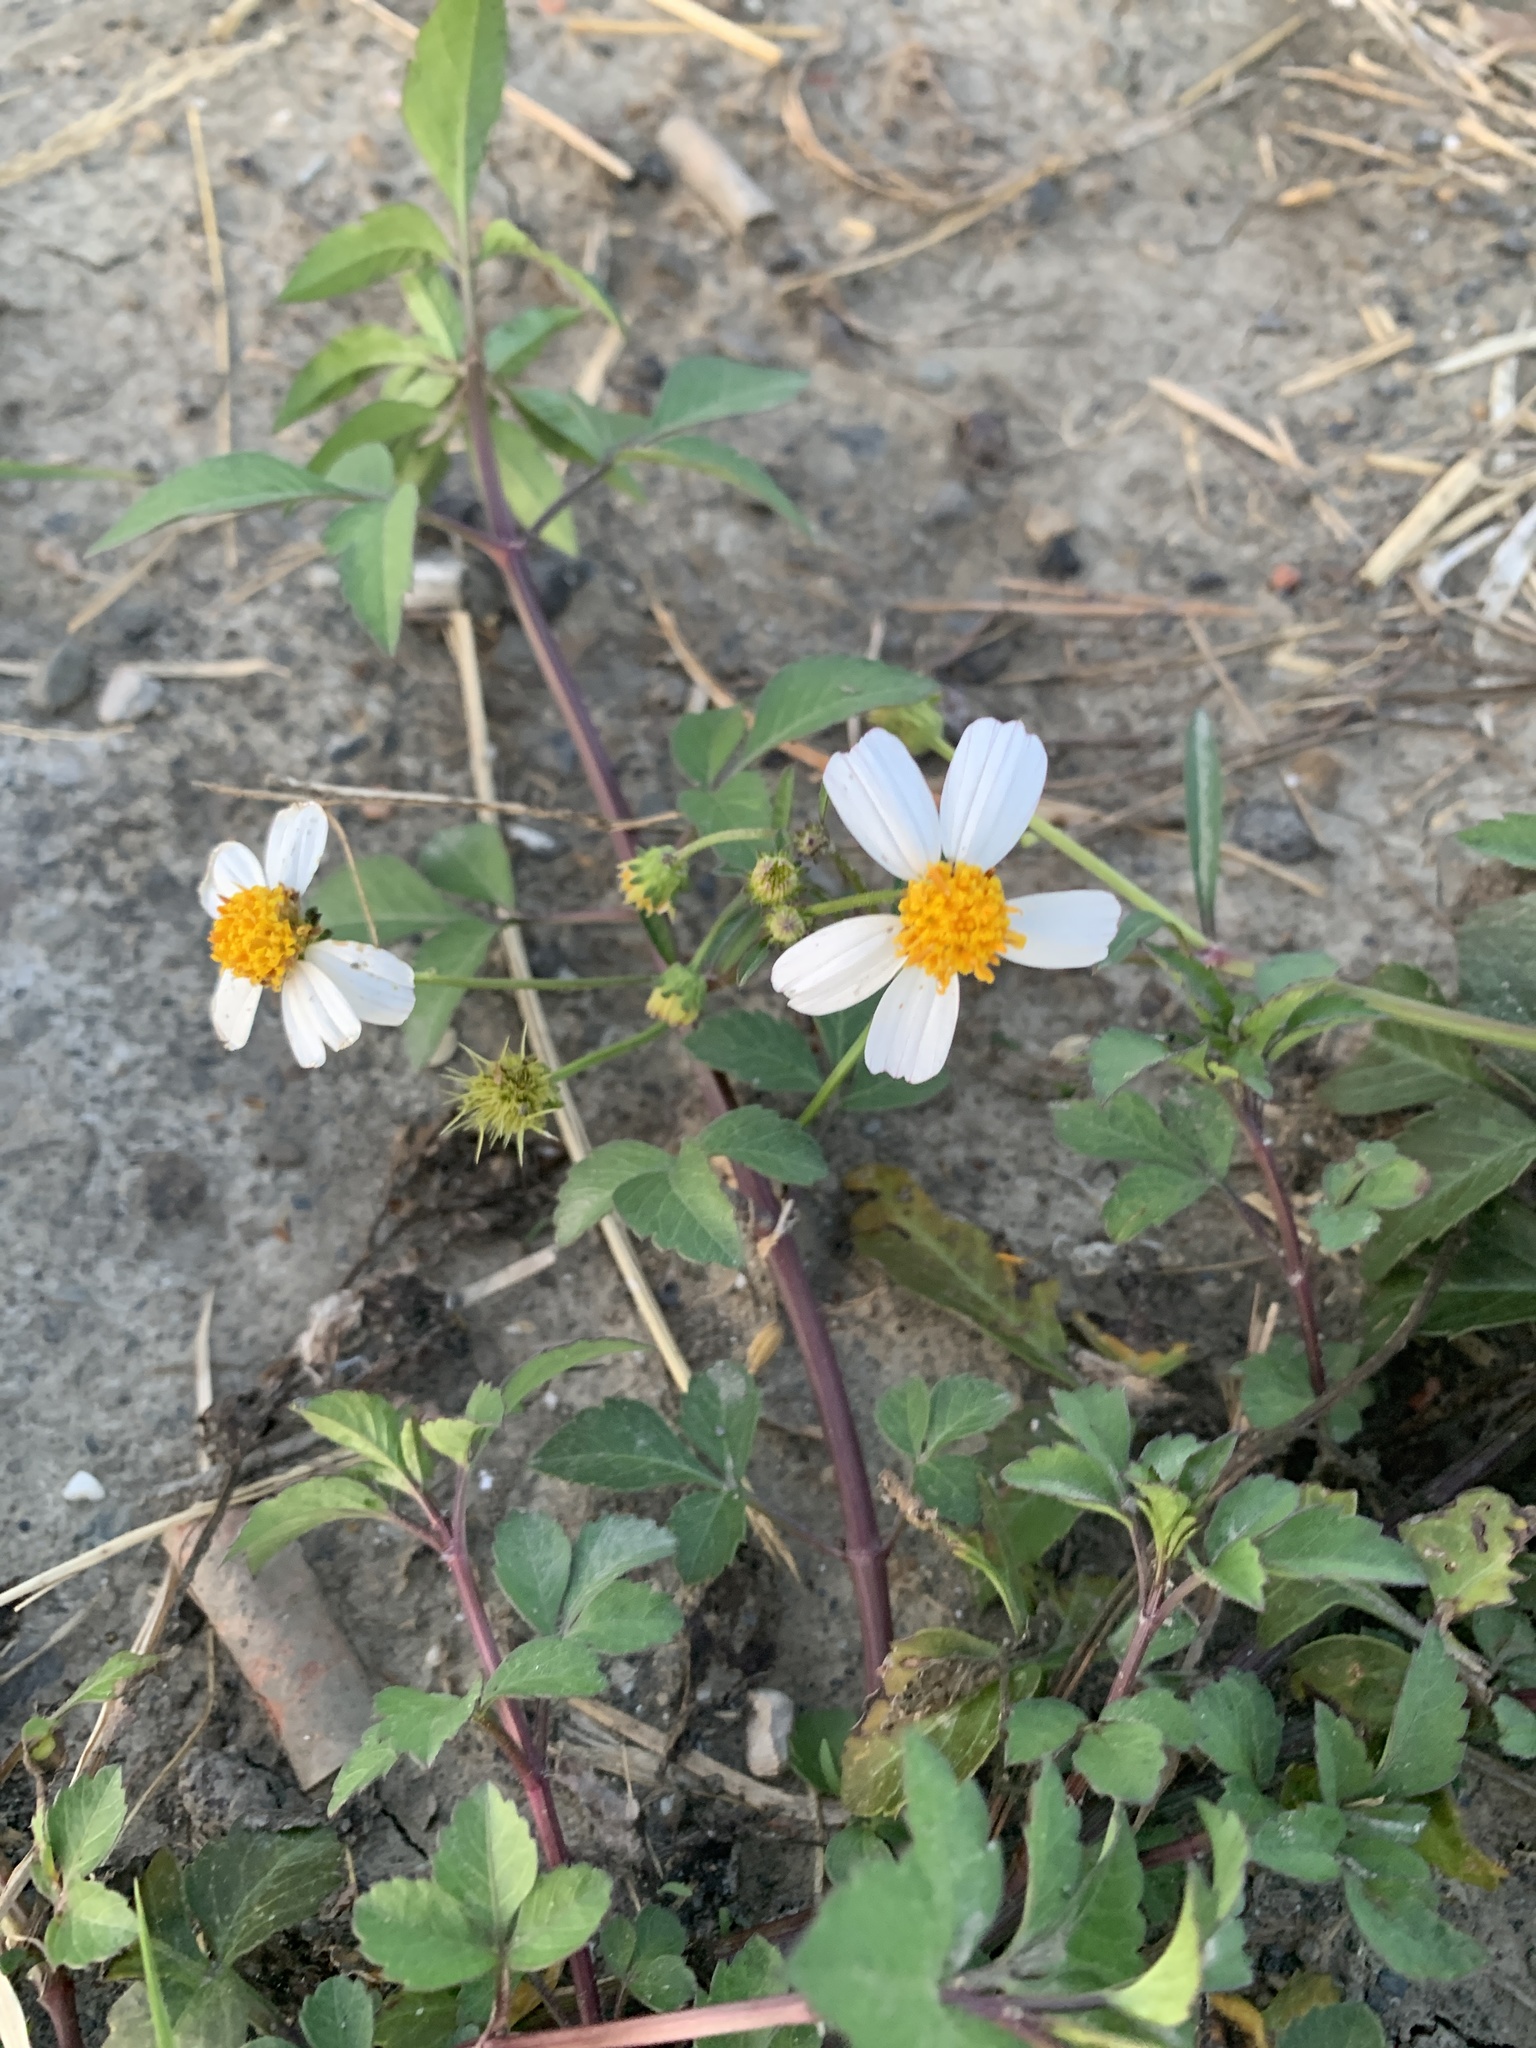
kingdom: Plantae
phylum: Tracheophyta
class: Magnoliopsida
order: Asterales
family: Asteraceae
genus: Bidens
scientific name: Bidens alba
